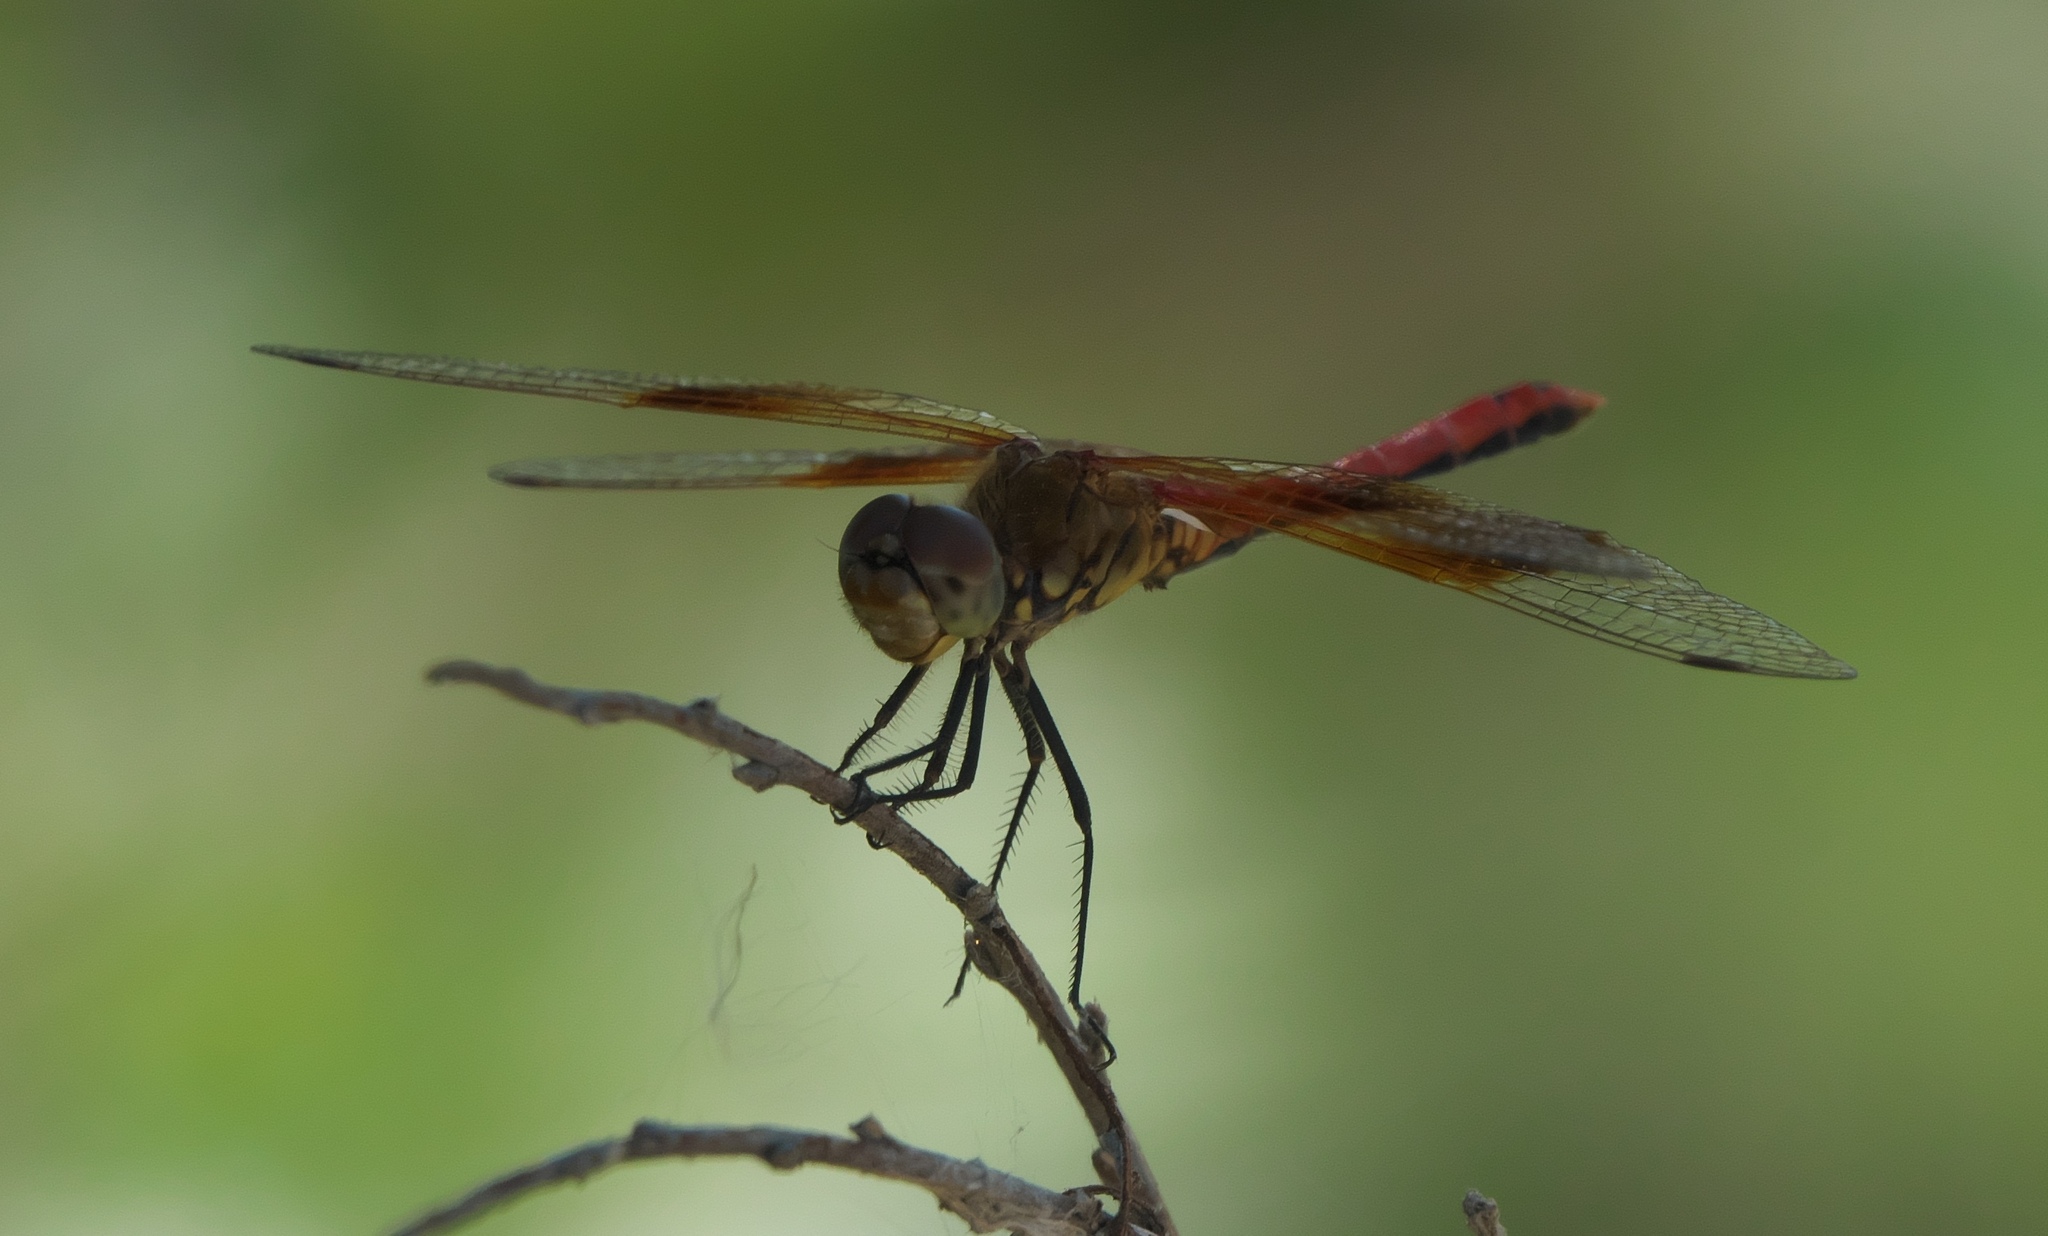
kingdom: Animalia
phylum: Arthropoda
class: Insecta
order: Odonata
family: Libellulidae
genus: Sympetrum
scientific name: Sympetrum semicinctum
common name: Band-winged meadowhawk
